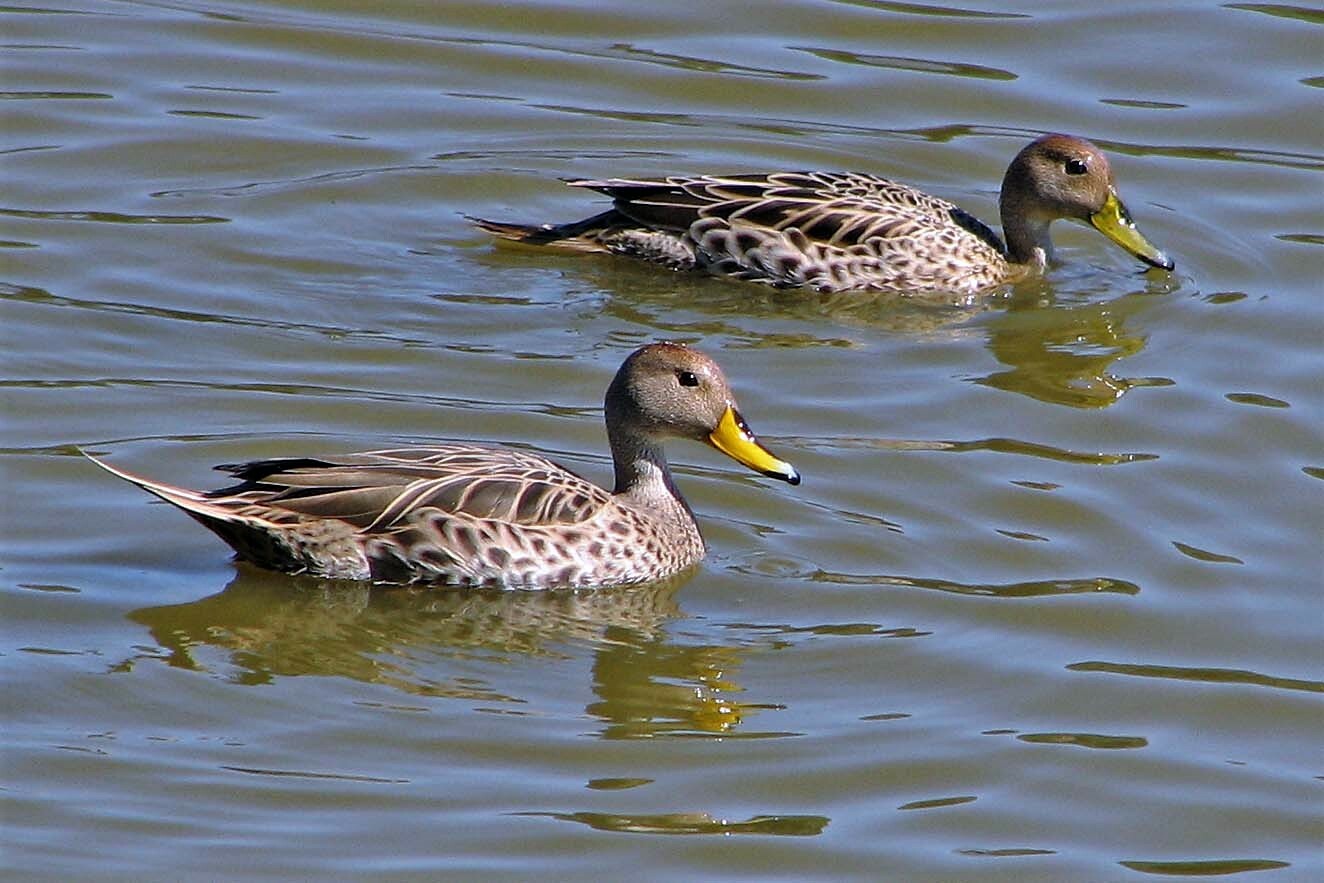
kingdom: Animalia
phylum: Chordata
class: Aves
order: Anseriformes
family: Anatidae
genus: Anas
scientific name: Anas georgica
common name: Yellow-billed pintail
